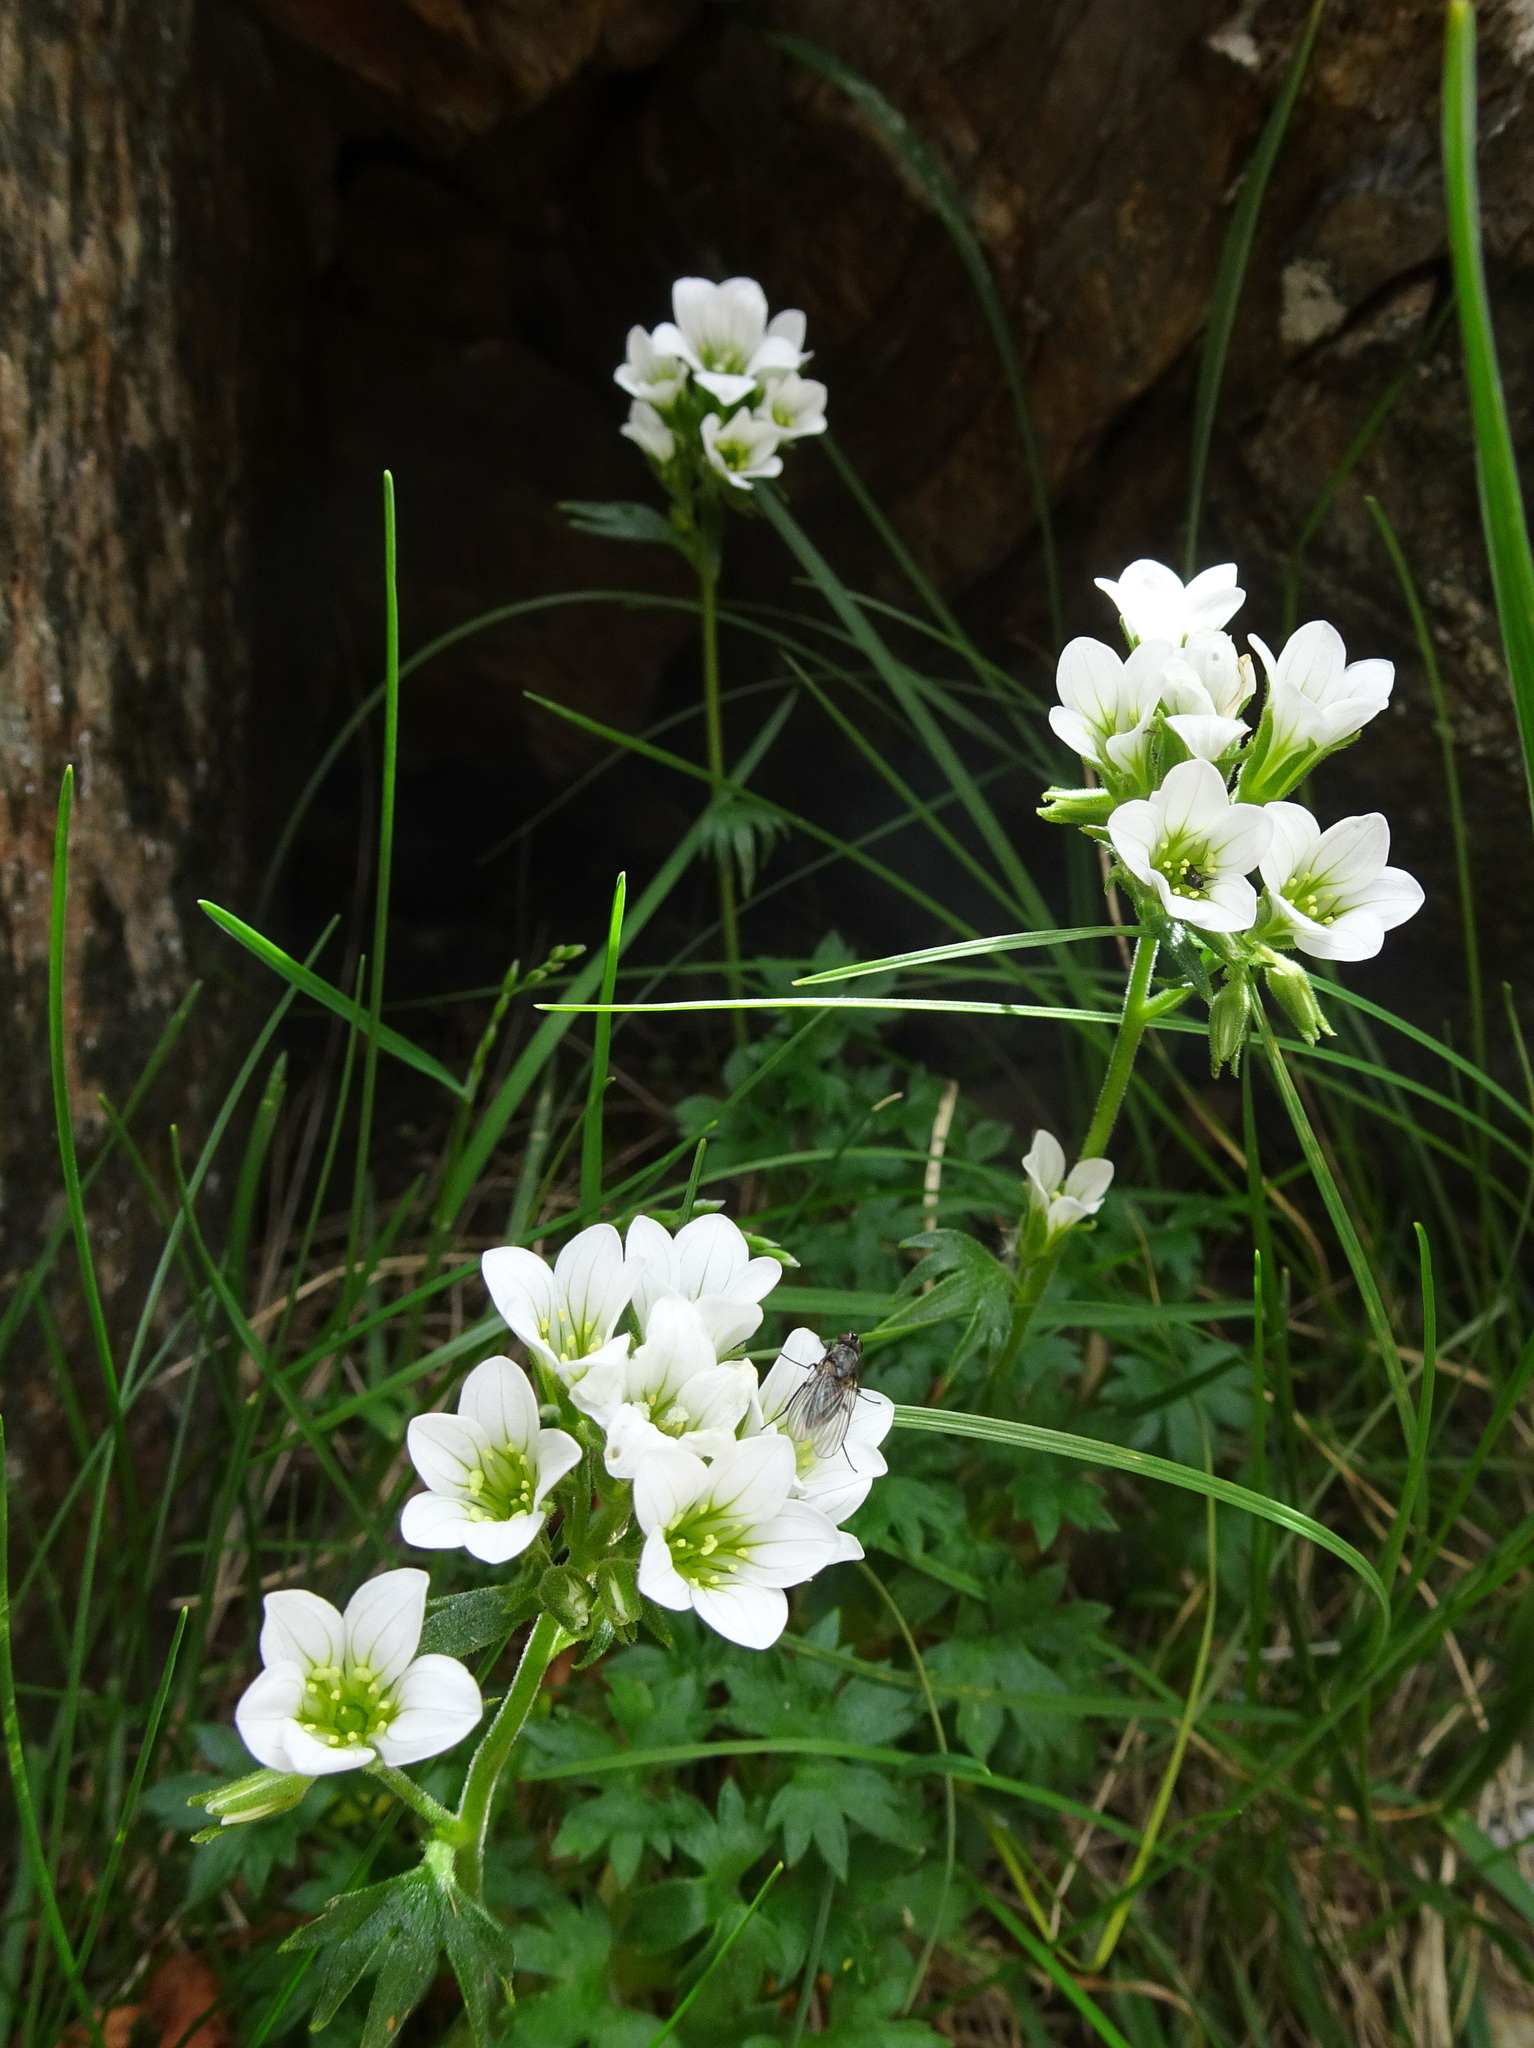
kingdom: Plantae
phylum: Tracheophyta
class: Magnoliopsida
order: Saxifragales
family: Saxifragaceae
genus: Saxifraga
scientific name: Saxifraga geranioides
